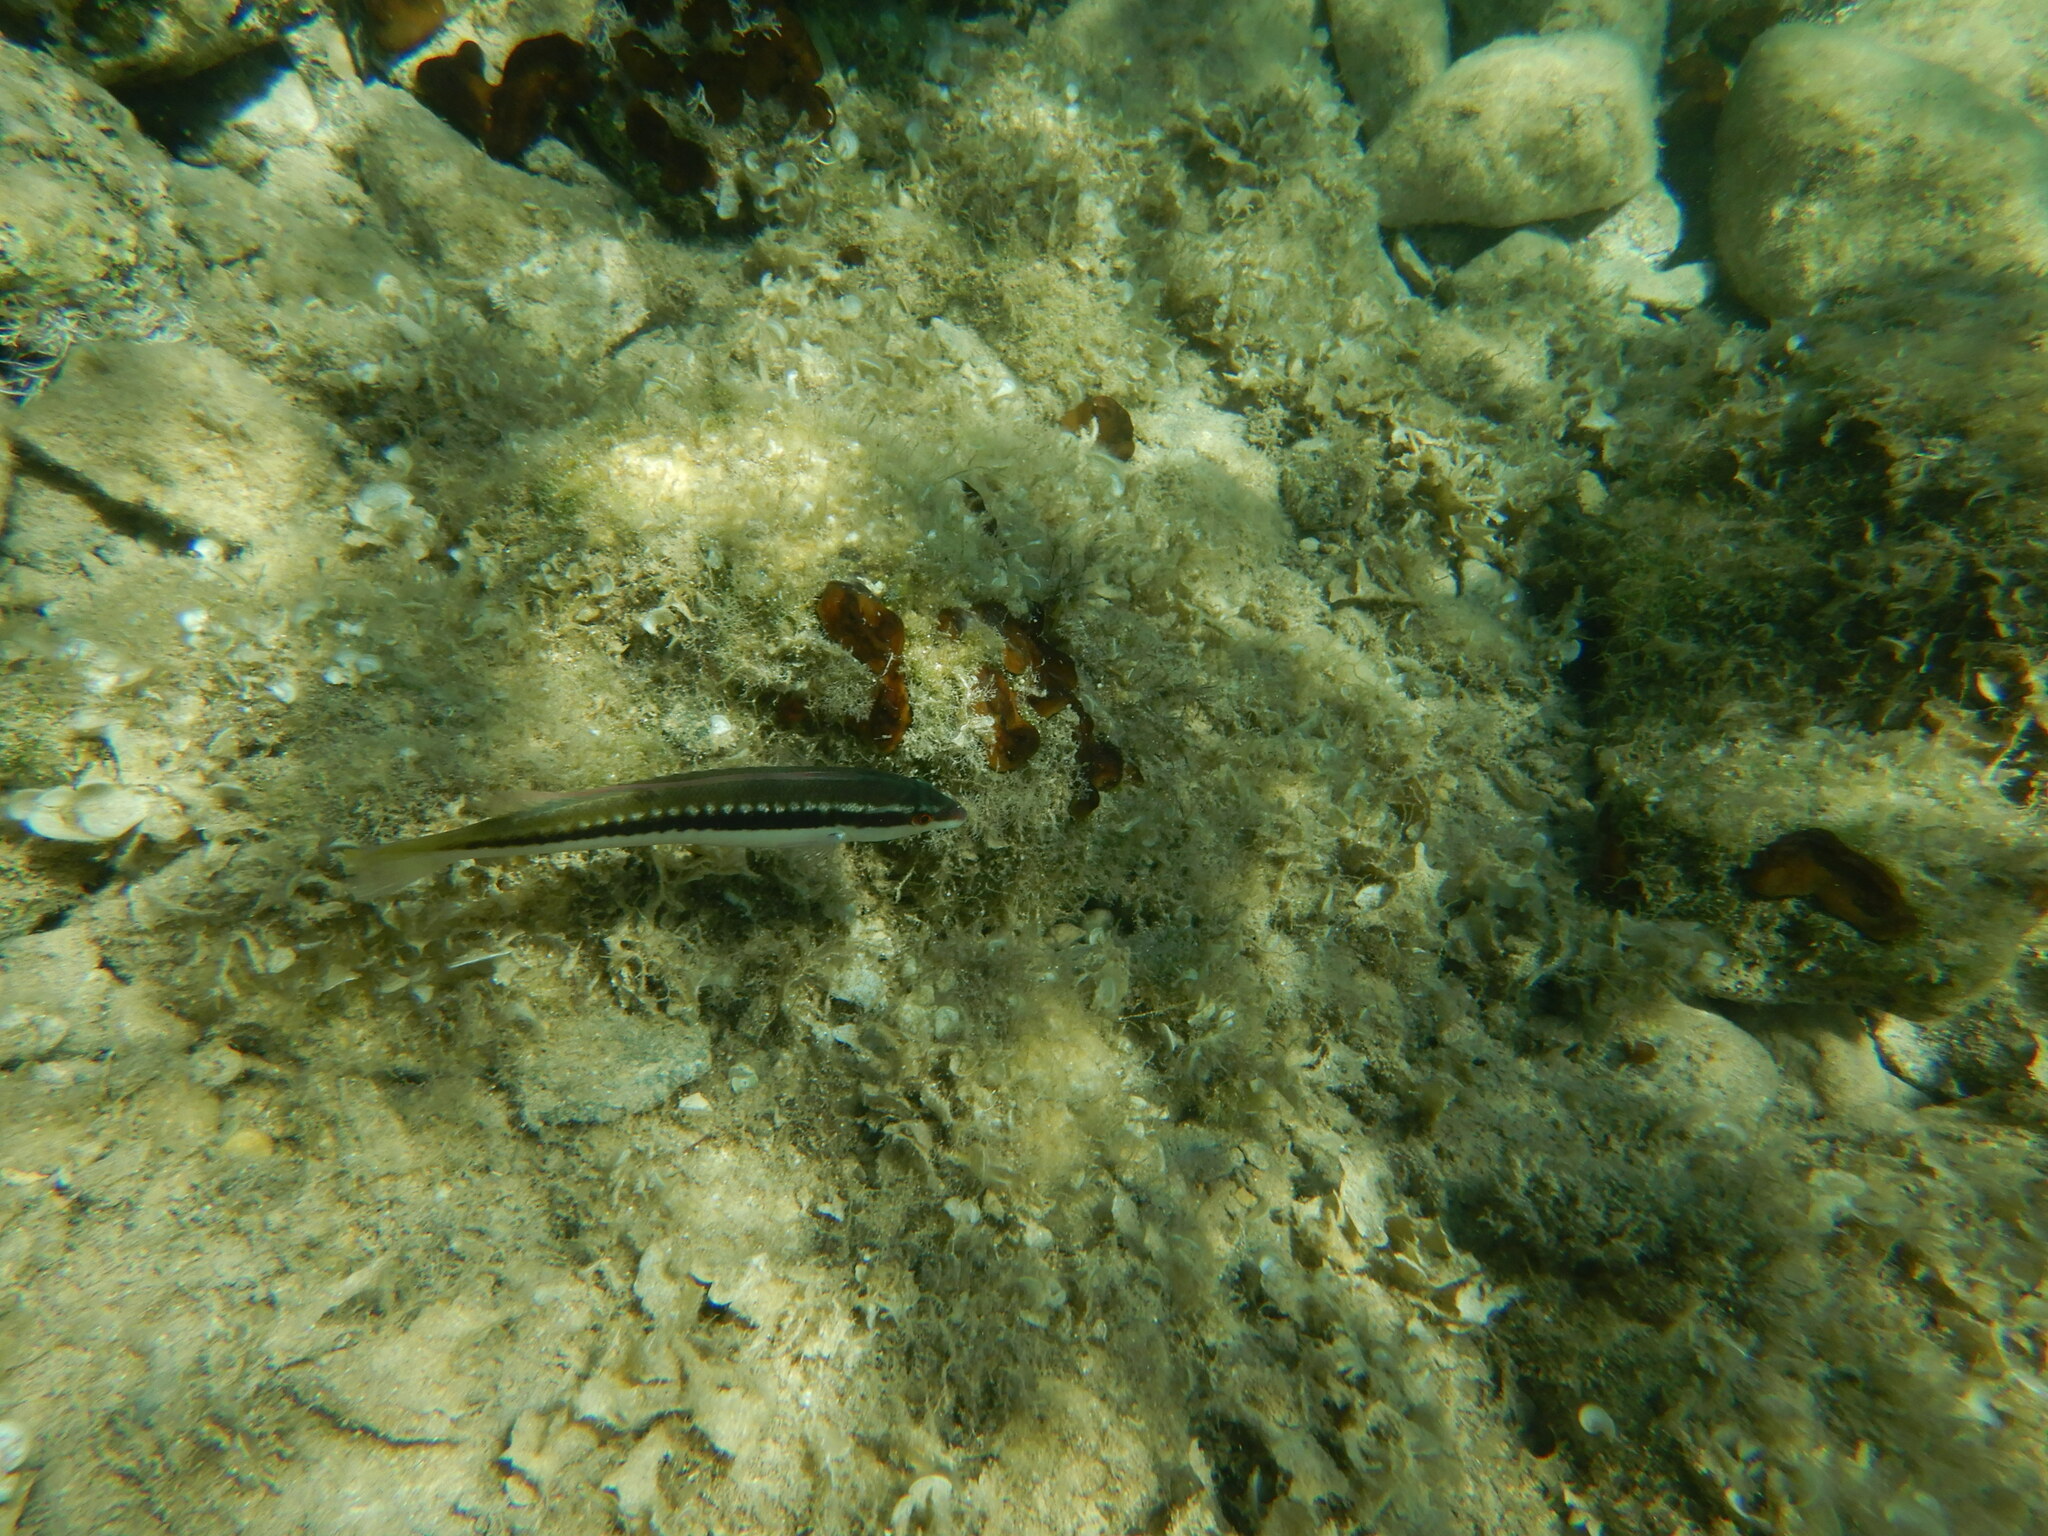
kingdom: Animalia
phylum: Chordata
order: Perciformes
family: Labridae
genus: Coris
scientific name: Coris julis
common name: Rainbow wrasse
